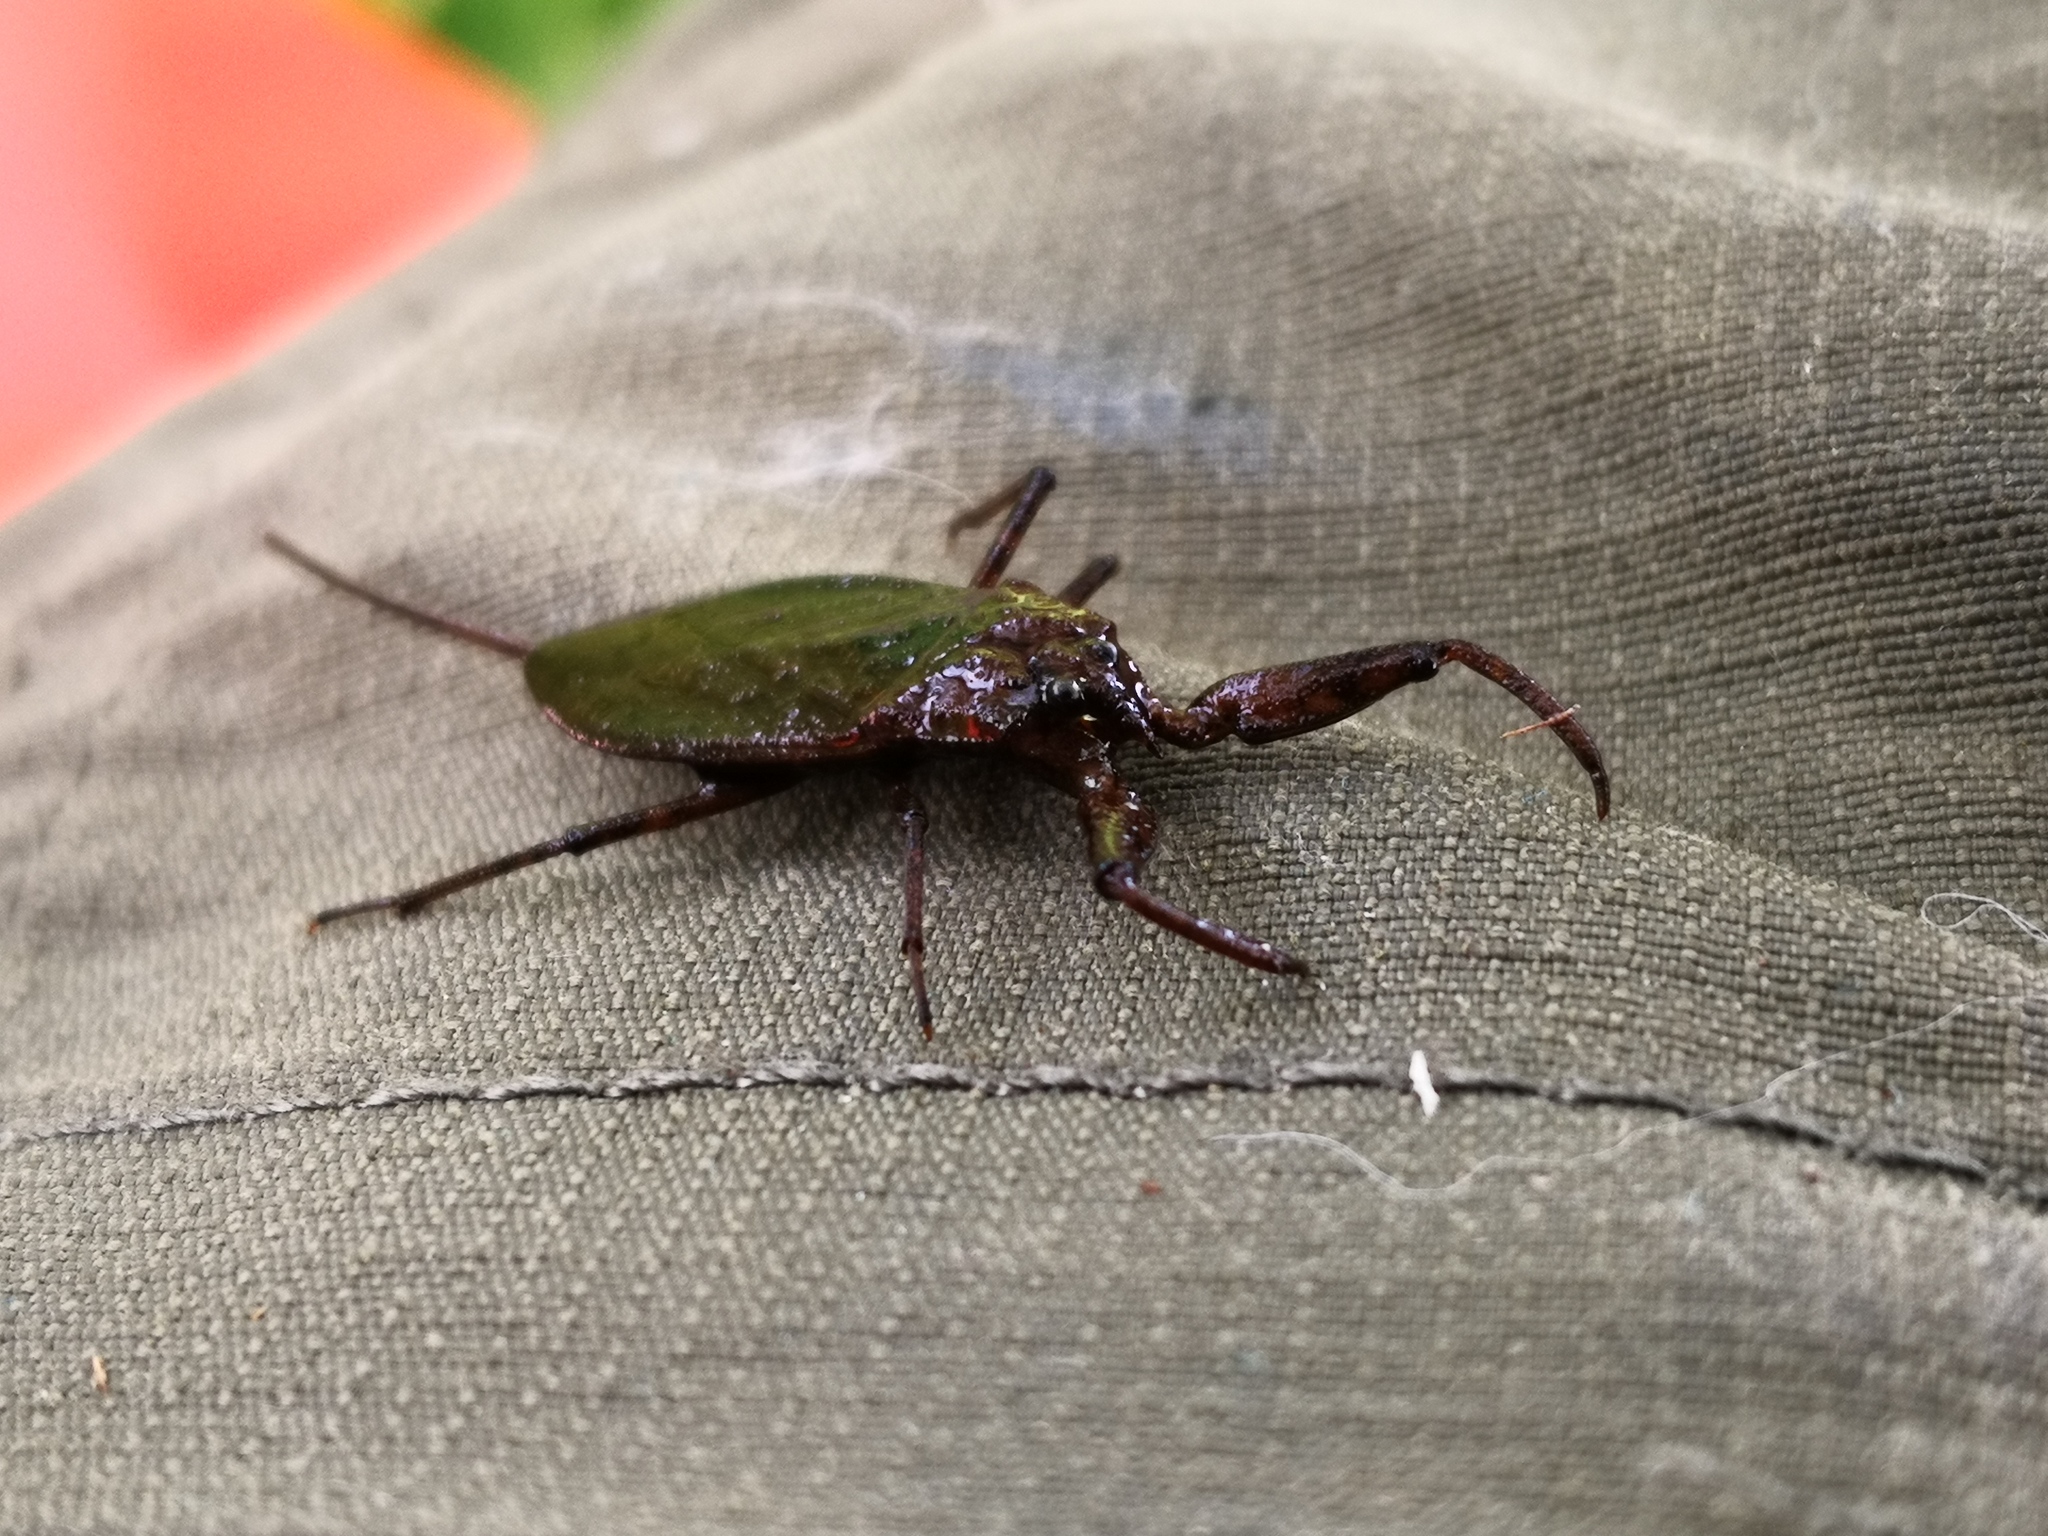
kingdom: Animalia
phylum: Arthropoda
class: Insecta
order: Hemiptera
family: Nepidae
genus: Nepa
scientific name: Nepa cinerea
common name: Water scorpion
